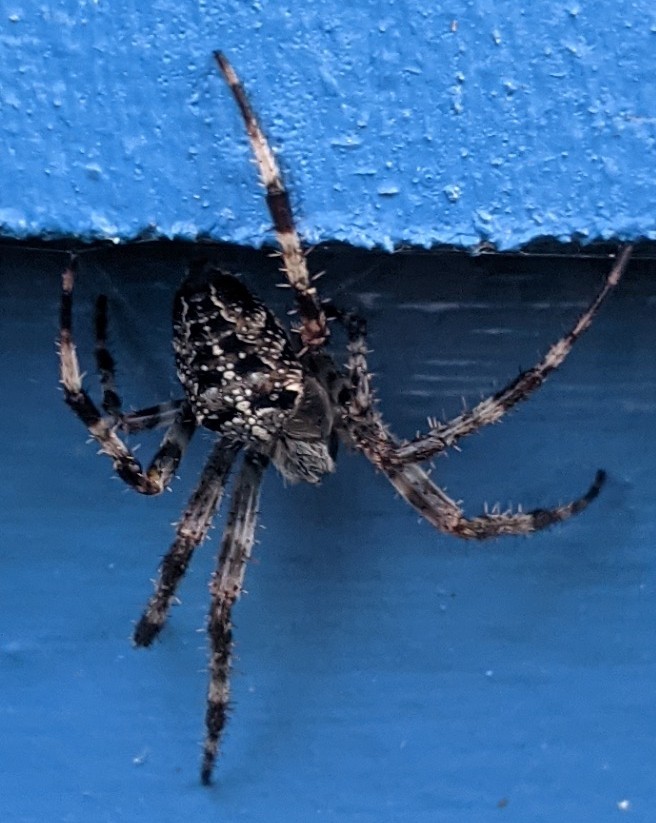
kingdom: Animalia
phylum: Arthropoda
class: Arachnida
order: Araneae
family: Araneidae
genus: Araneus
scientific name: Araneus diadematus
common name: Cross orbweaver
